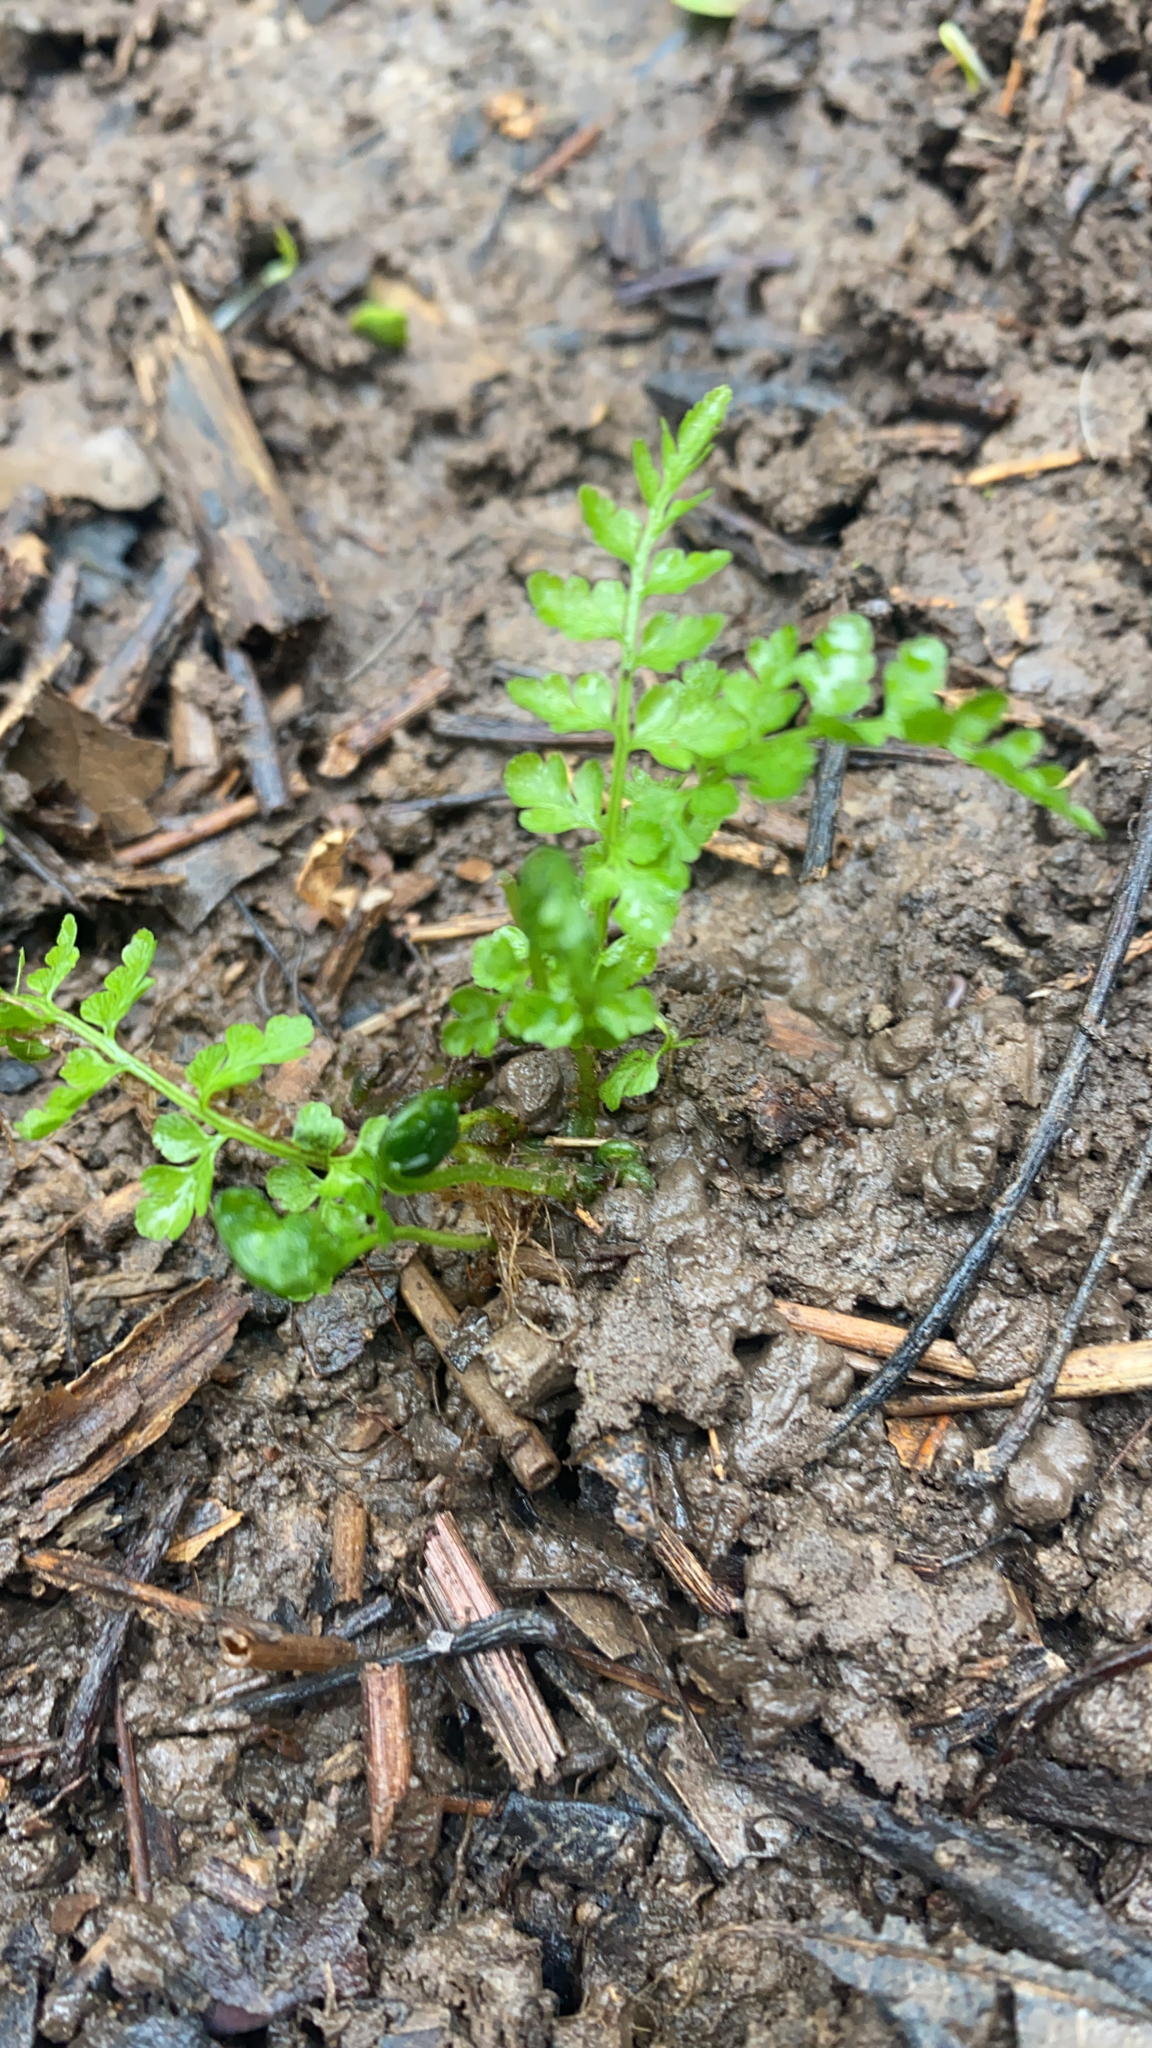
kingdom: Plantae
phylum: Tracheophyta
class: Polypodiopsida
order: Polypodiales
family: Cystopteridaceae
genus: Cystopteris
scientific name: Cystopteris protrusa
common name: Lowland brittle fern
